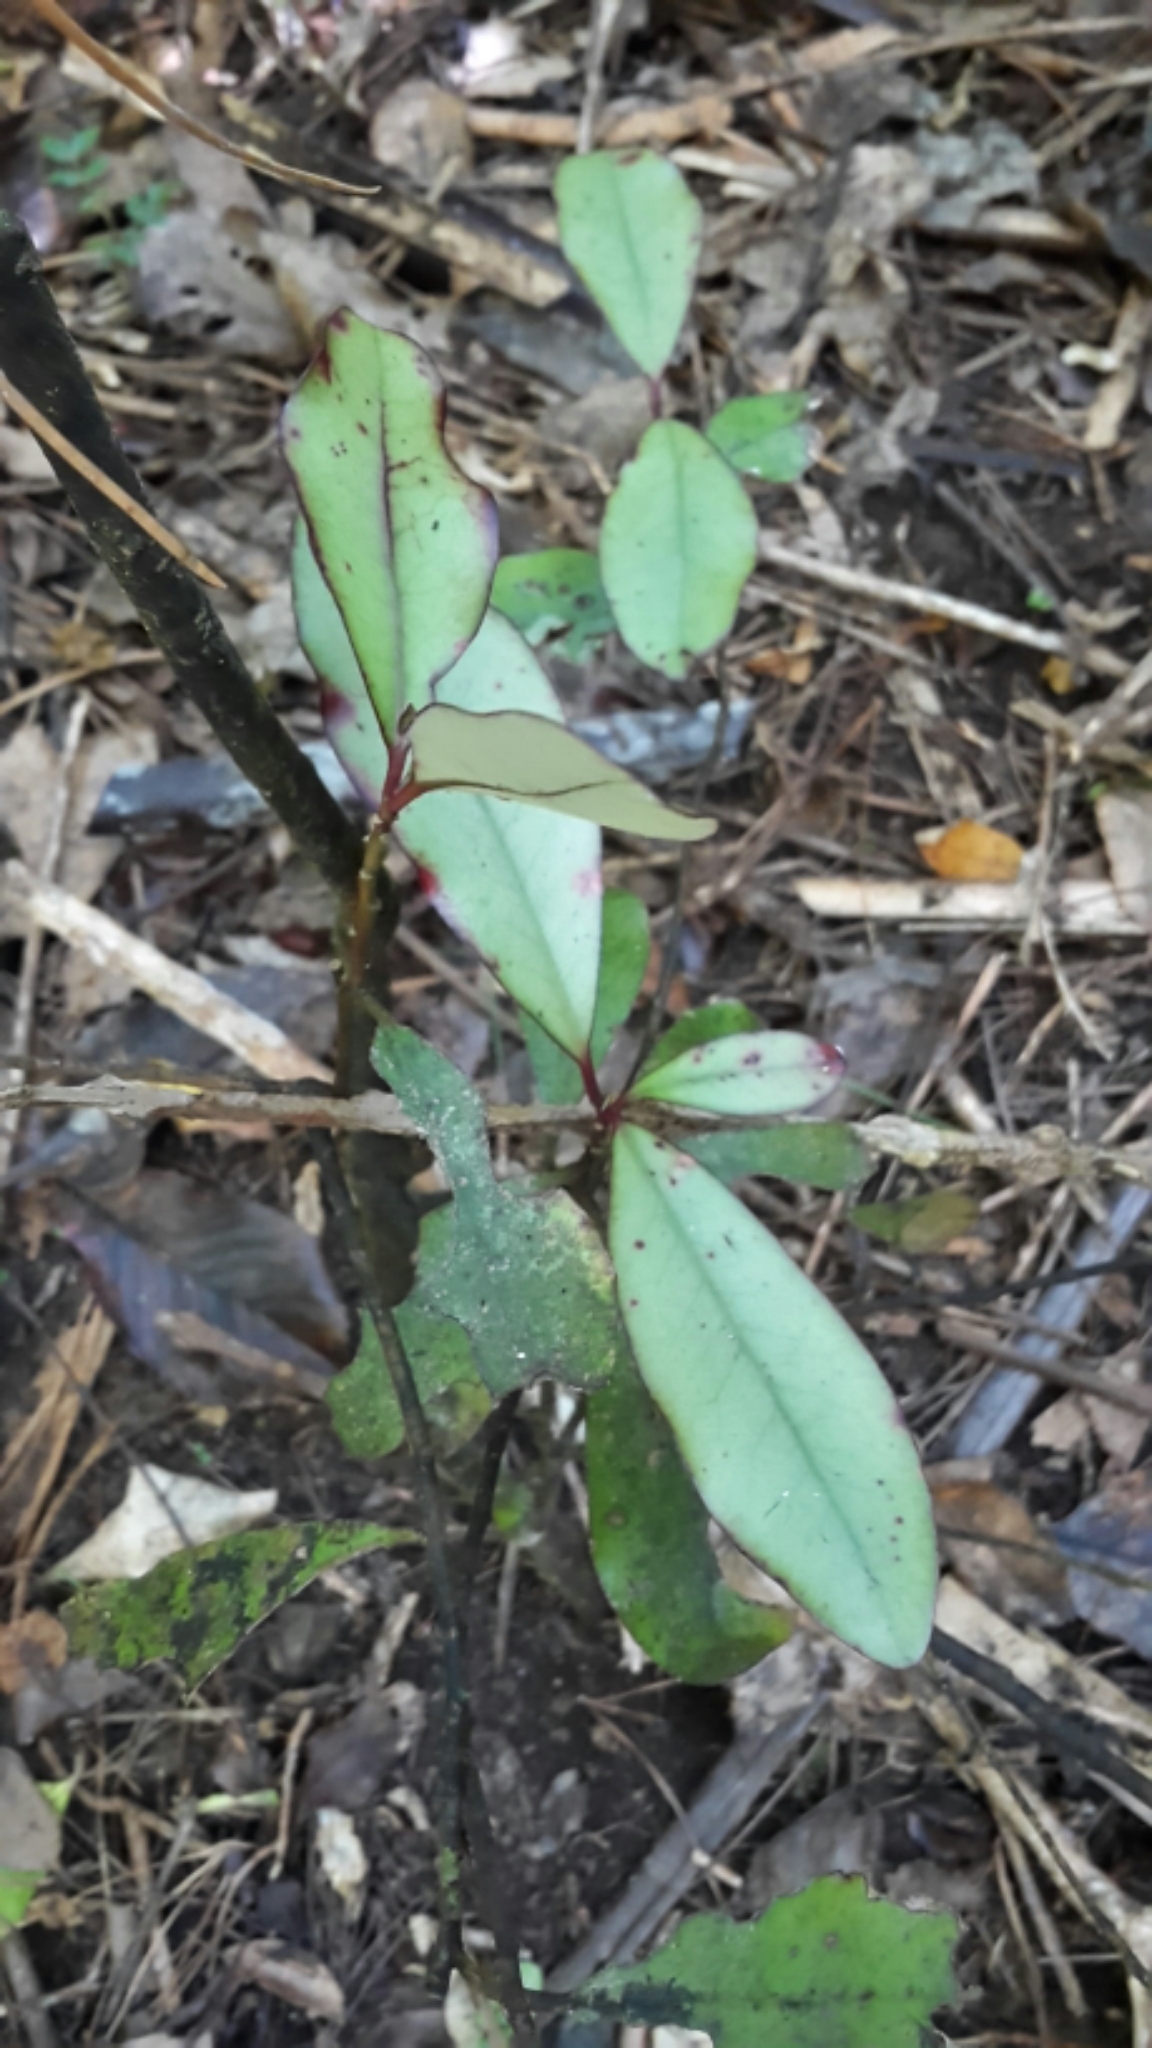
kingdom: Plantae
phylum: Tracheophyta
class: Magnoliopsida
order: Canellales
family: Winteraceae
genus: Pseudowintera
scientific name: Pseudowintera colorata
